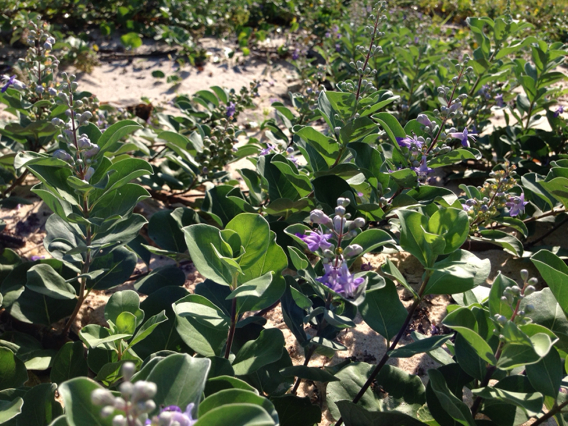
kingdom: Plantae
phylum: Tracheophyta
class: Magnoliopsida
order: Lamiales
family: Lamiaceae
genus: Vitex
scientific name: Vitex rotundifolia
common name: Beach vitex
